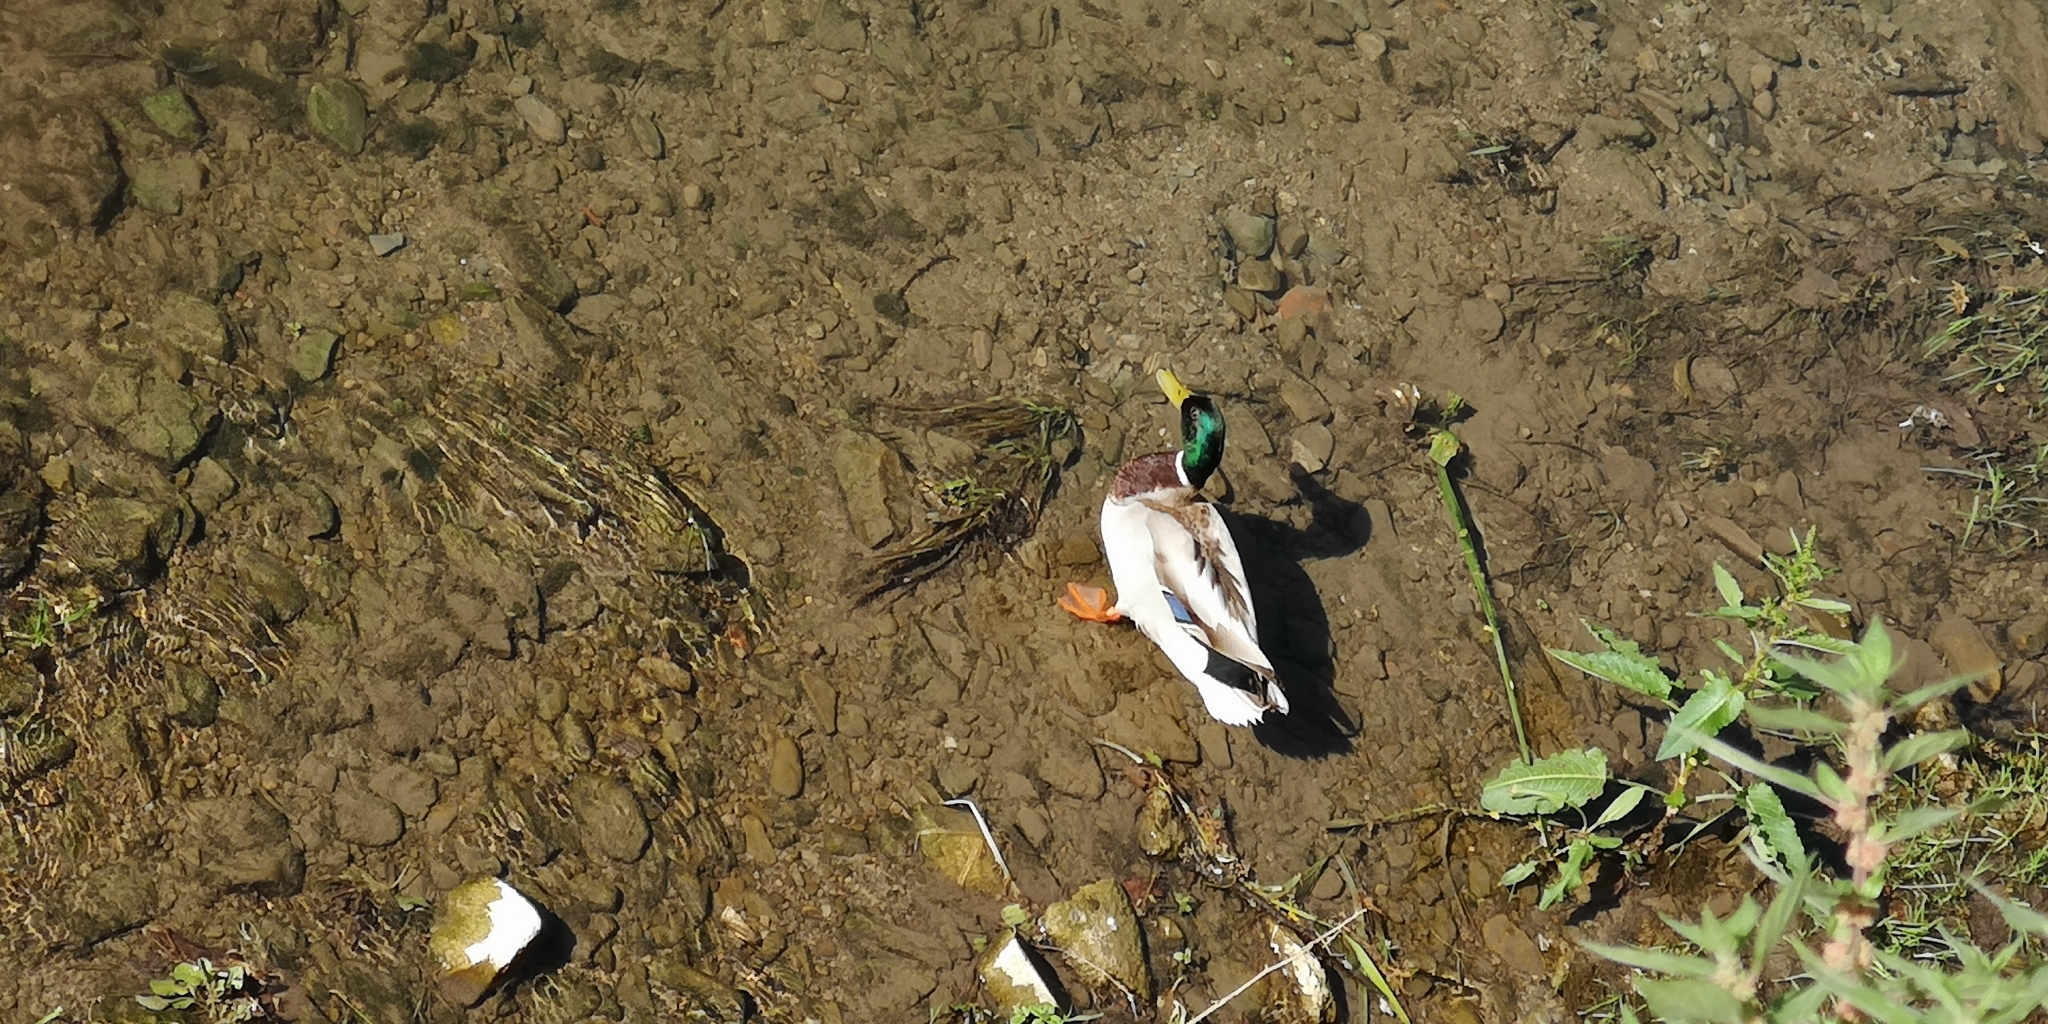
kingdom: Animalia
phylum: Chordata
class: Aves
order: Anseriformes
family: Anatidae
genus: Anas
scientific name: Anas platyrhynchos
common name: Mallard
